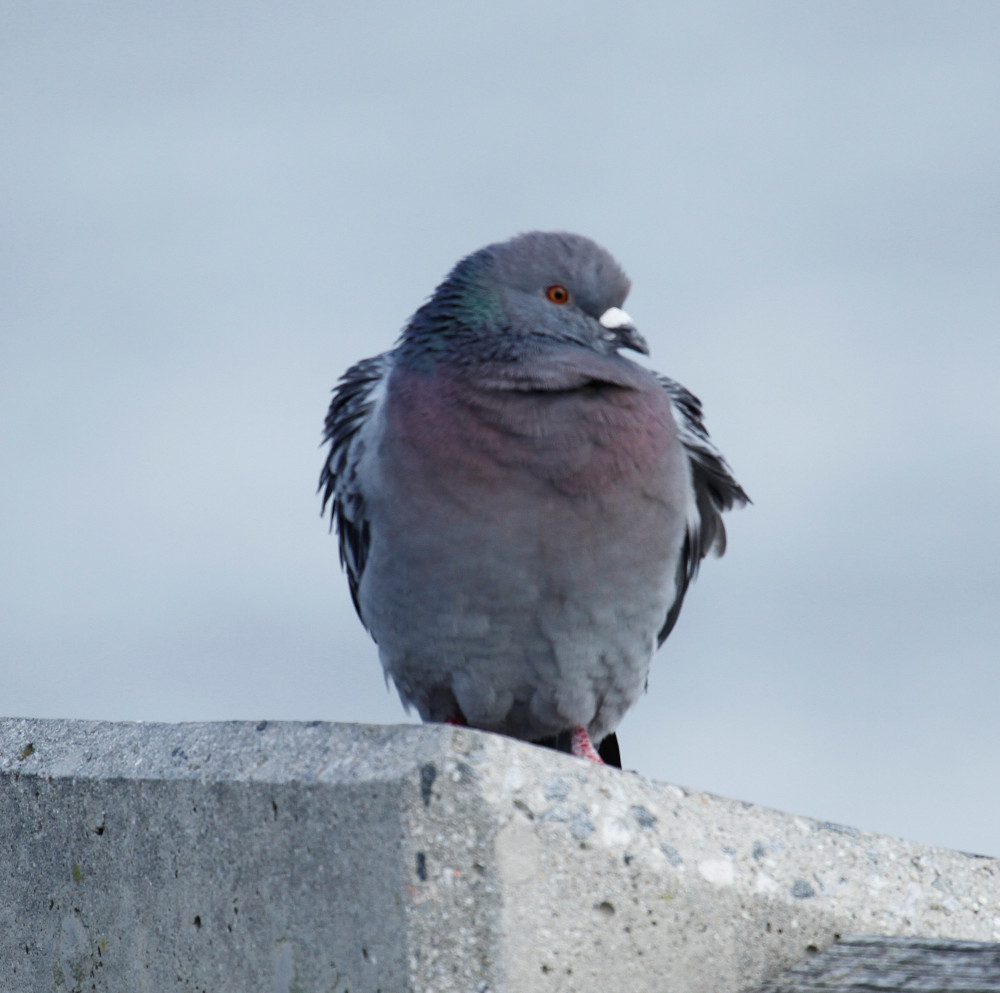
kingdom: Animalia
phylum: Chordata
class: Aves
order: Columbiformes
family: Columbidae
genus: Columba
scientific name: Columba livia
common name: Rock pigeon
